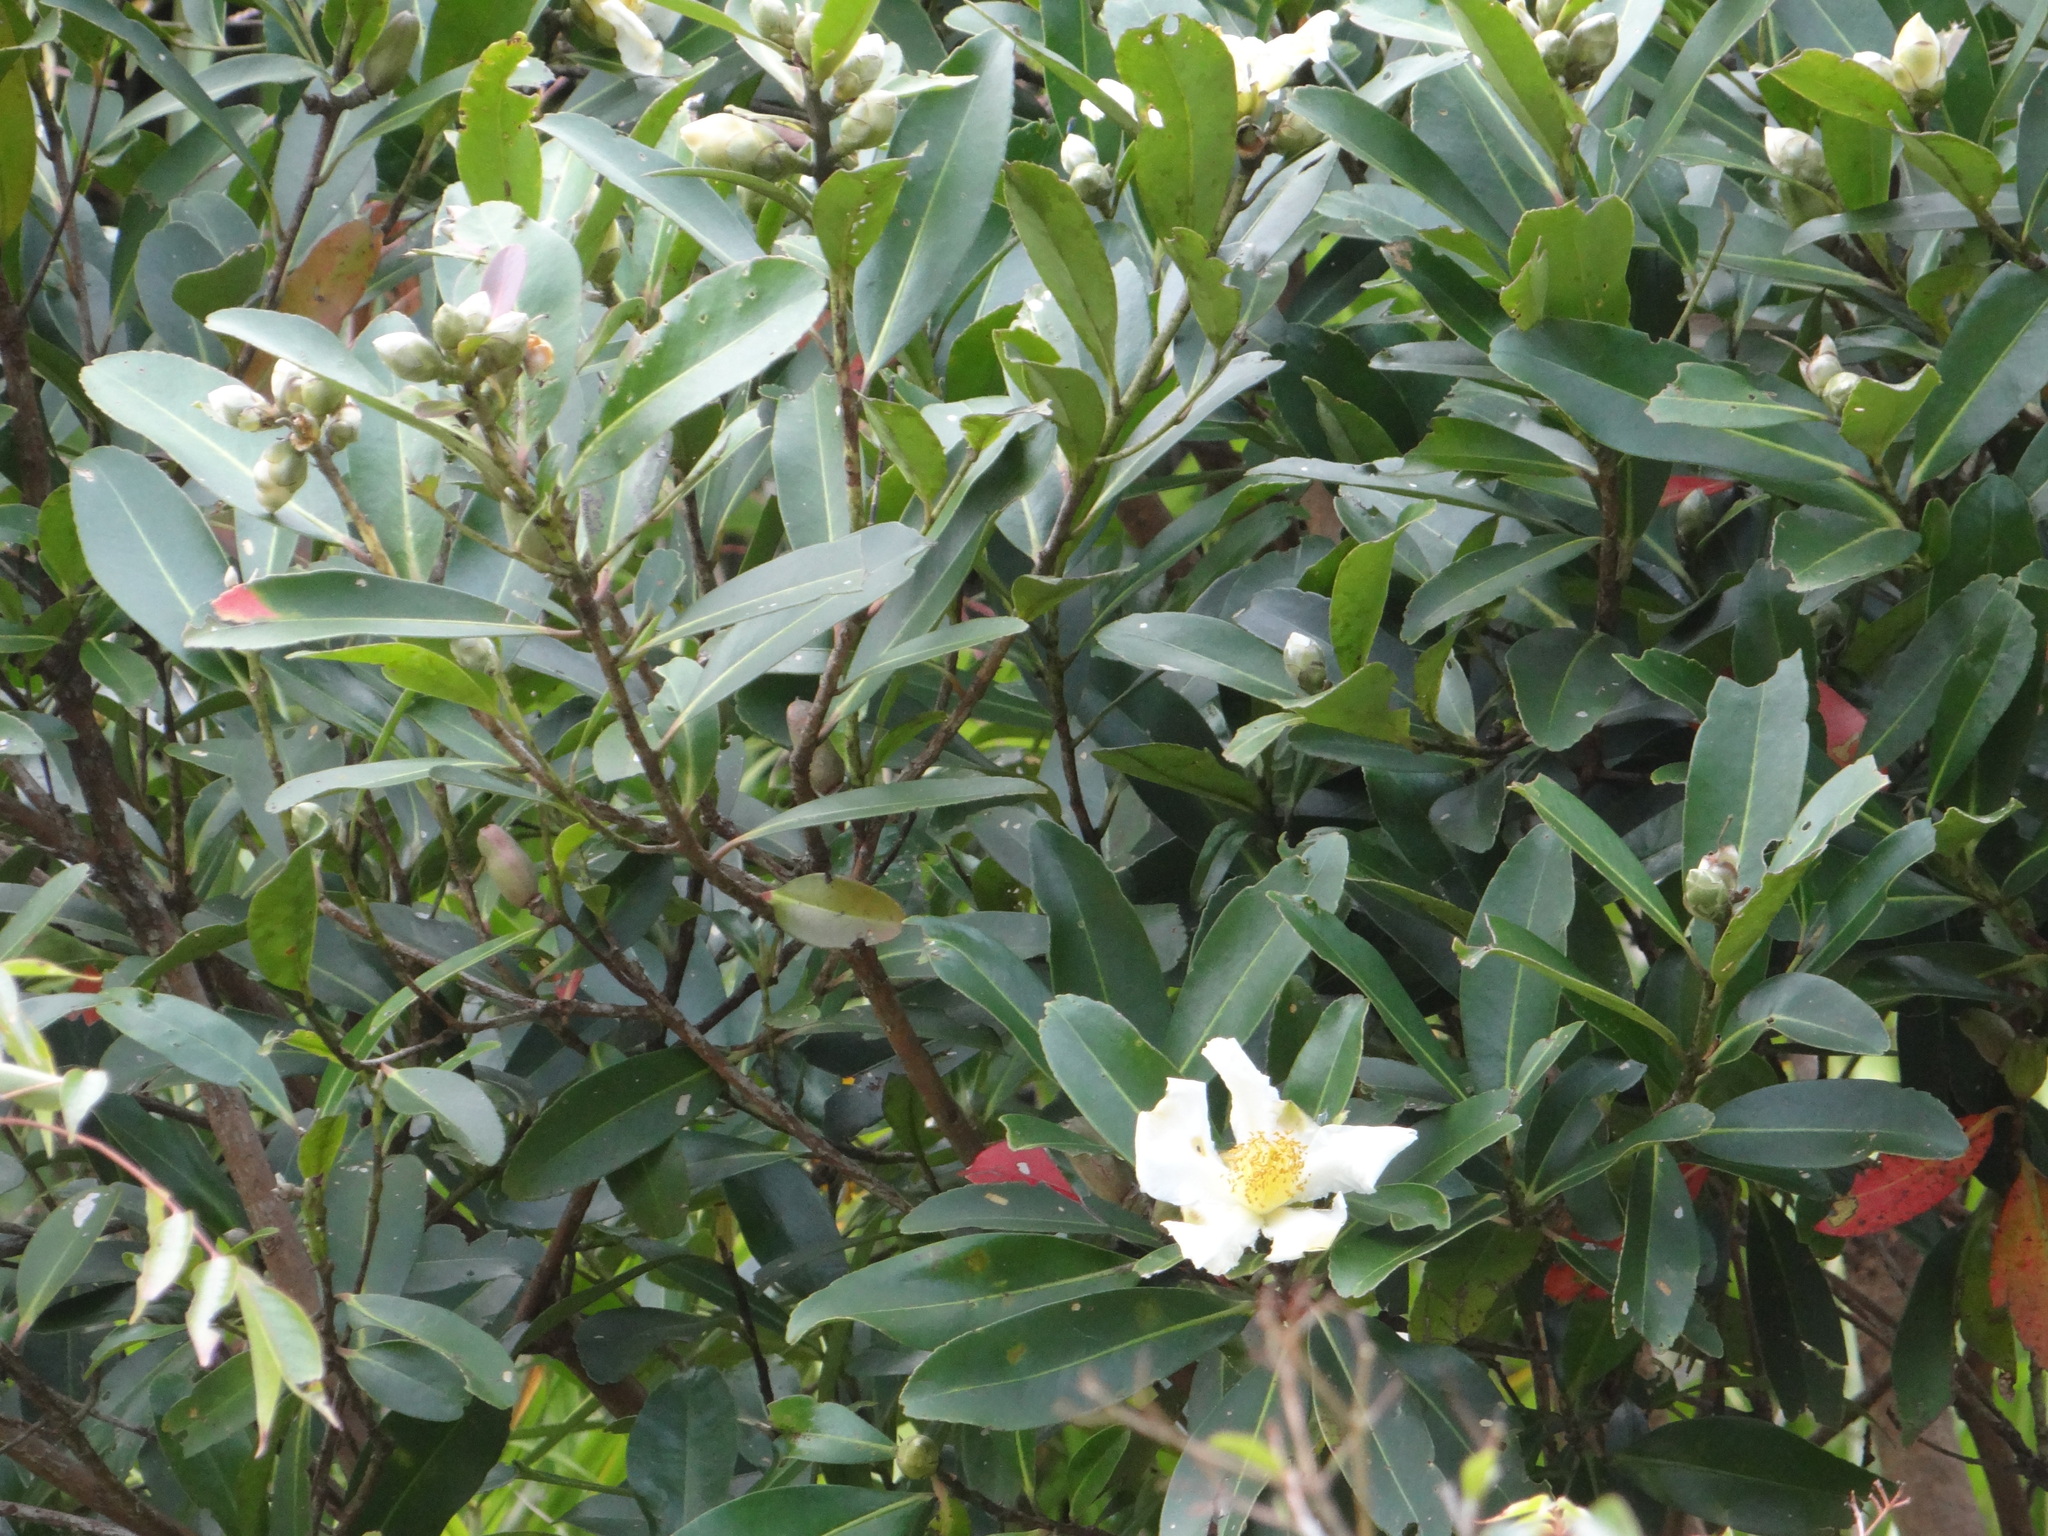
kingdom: Plantae
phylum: Tracheophyta
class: Magnoliopsida
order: Ericales
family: Theaceae
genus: Polyspora
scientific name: Polyspora axillaris
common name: Fried egg tree
